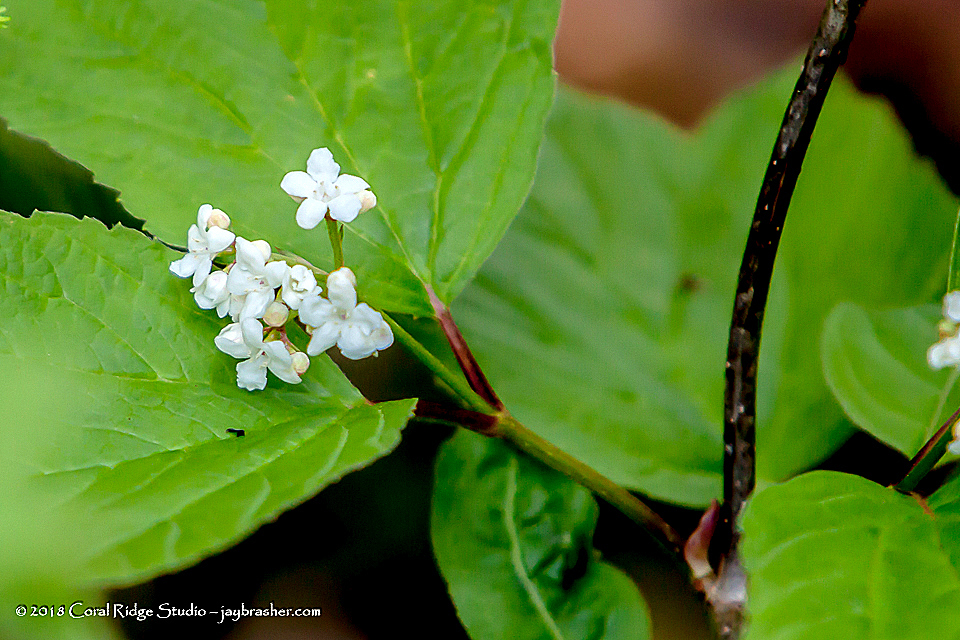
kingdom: Plantae
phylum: Tracheophyta
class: Magnoliopsida
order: Dipsacales
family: Viburnaceae
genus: Viburnum
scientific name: Viburnum edule
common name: Mooseberry
